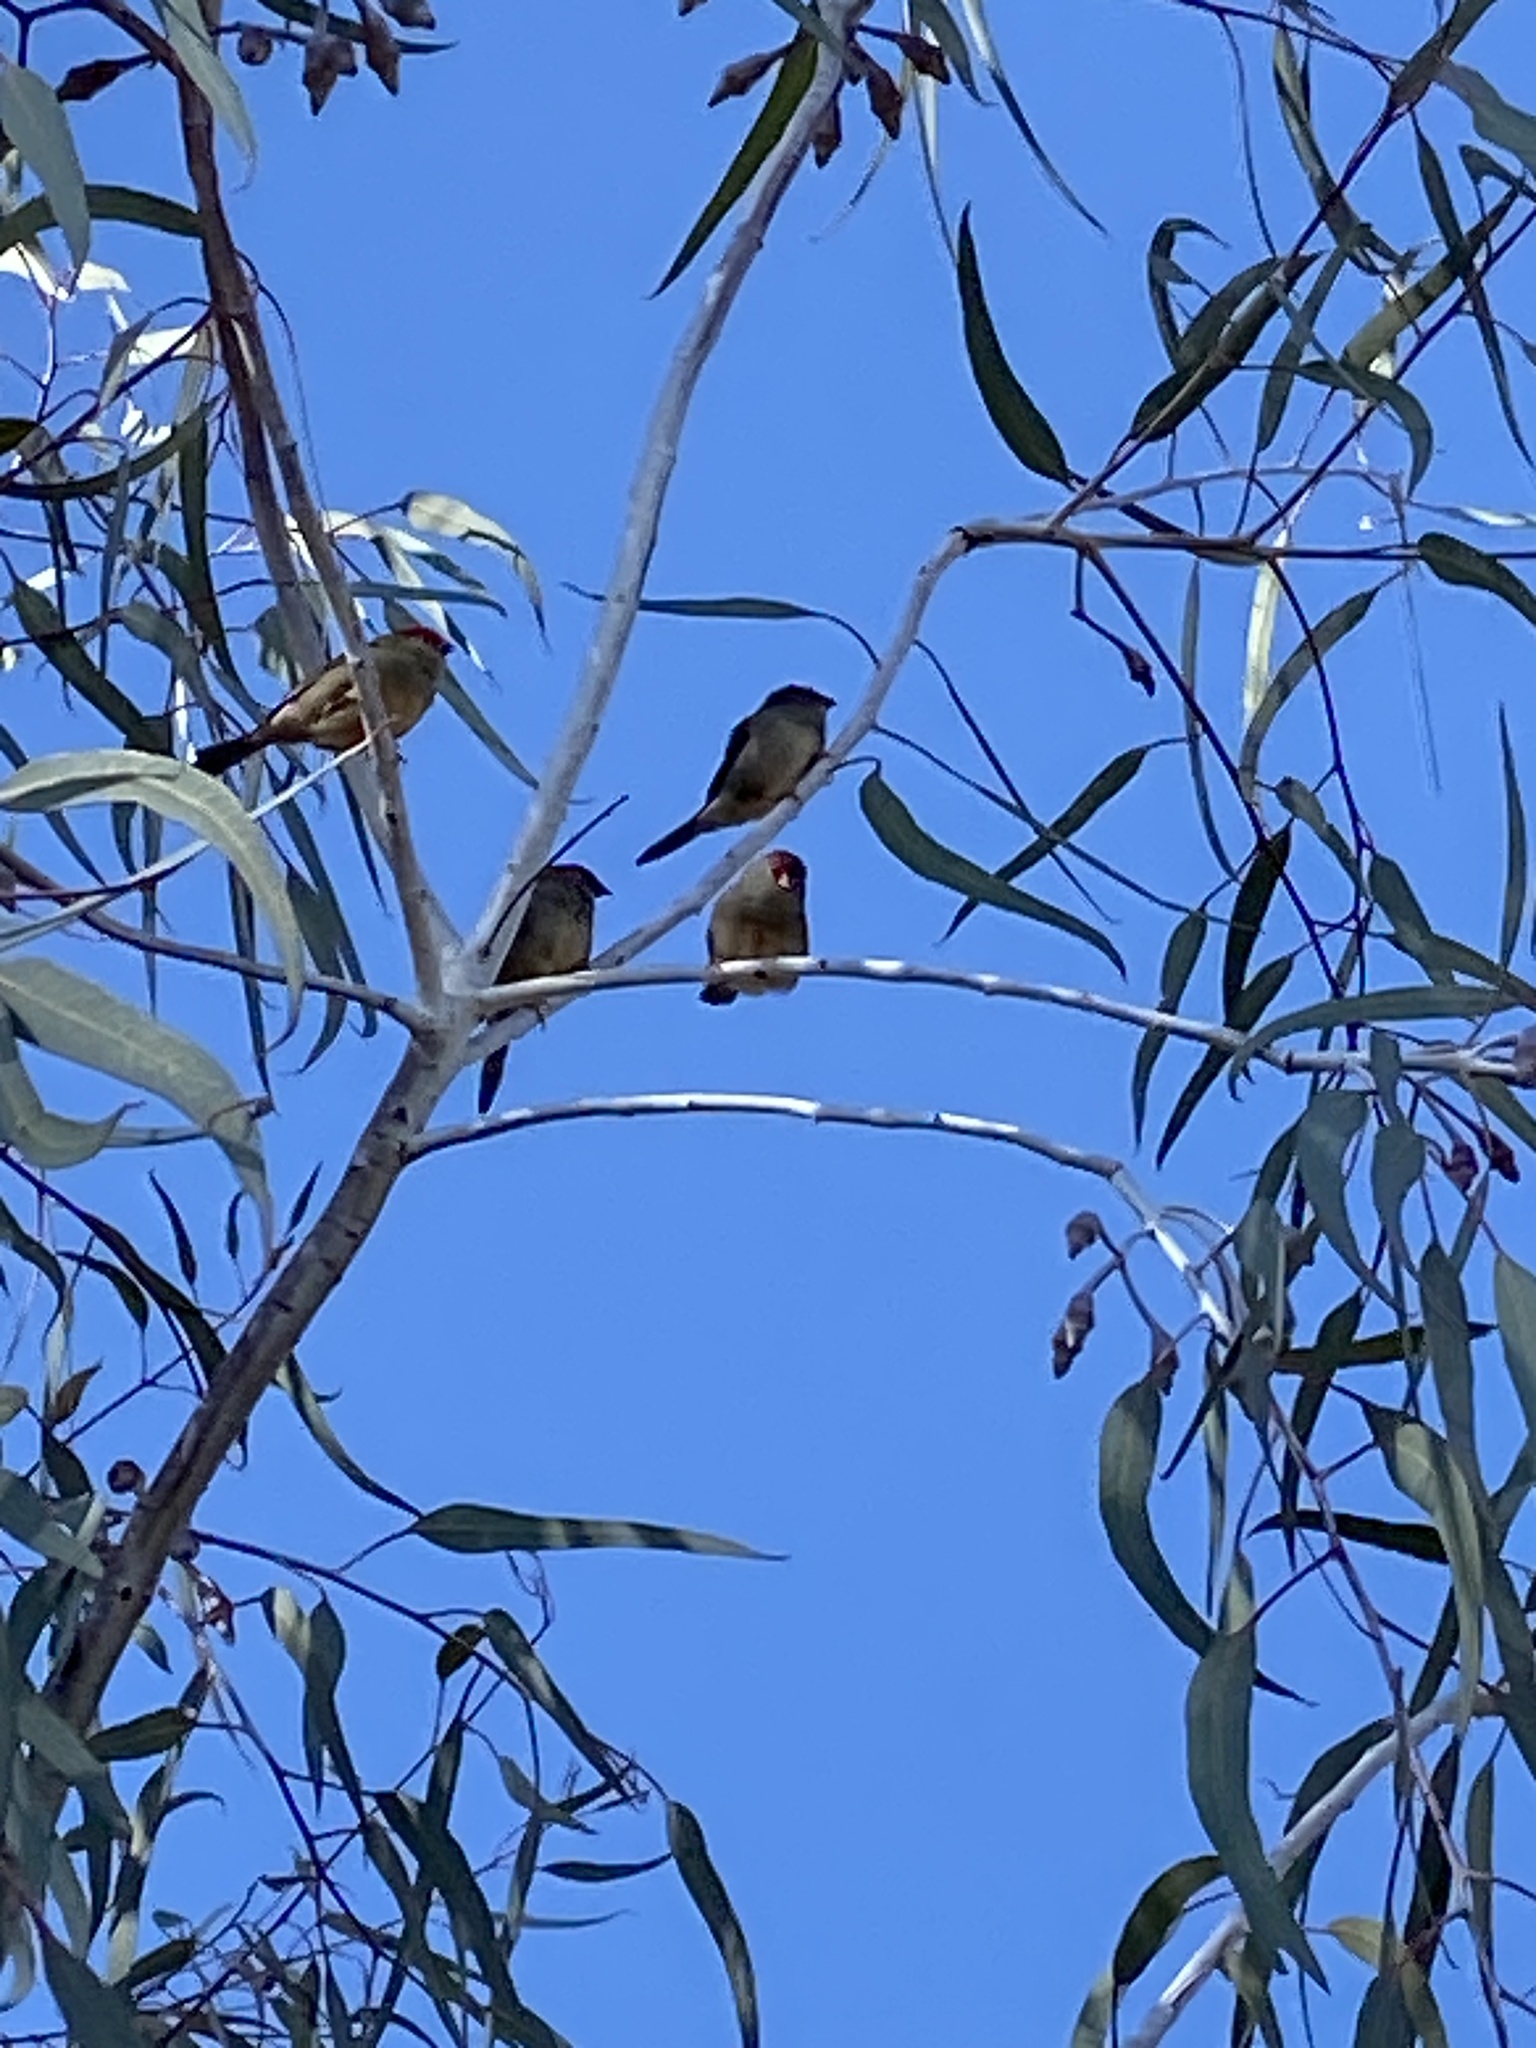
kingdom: Animalia
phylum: Chordata
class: Aves
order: Passeriformes
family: Estrildidae
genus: Neochmia
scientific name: Neochmia temporalis
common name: Red-browed finch
